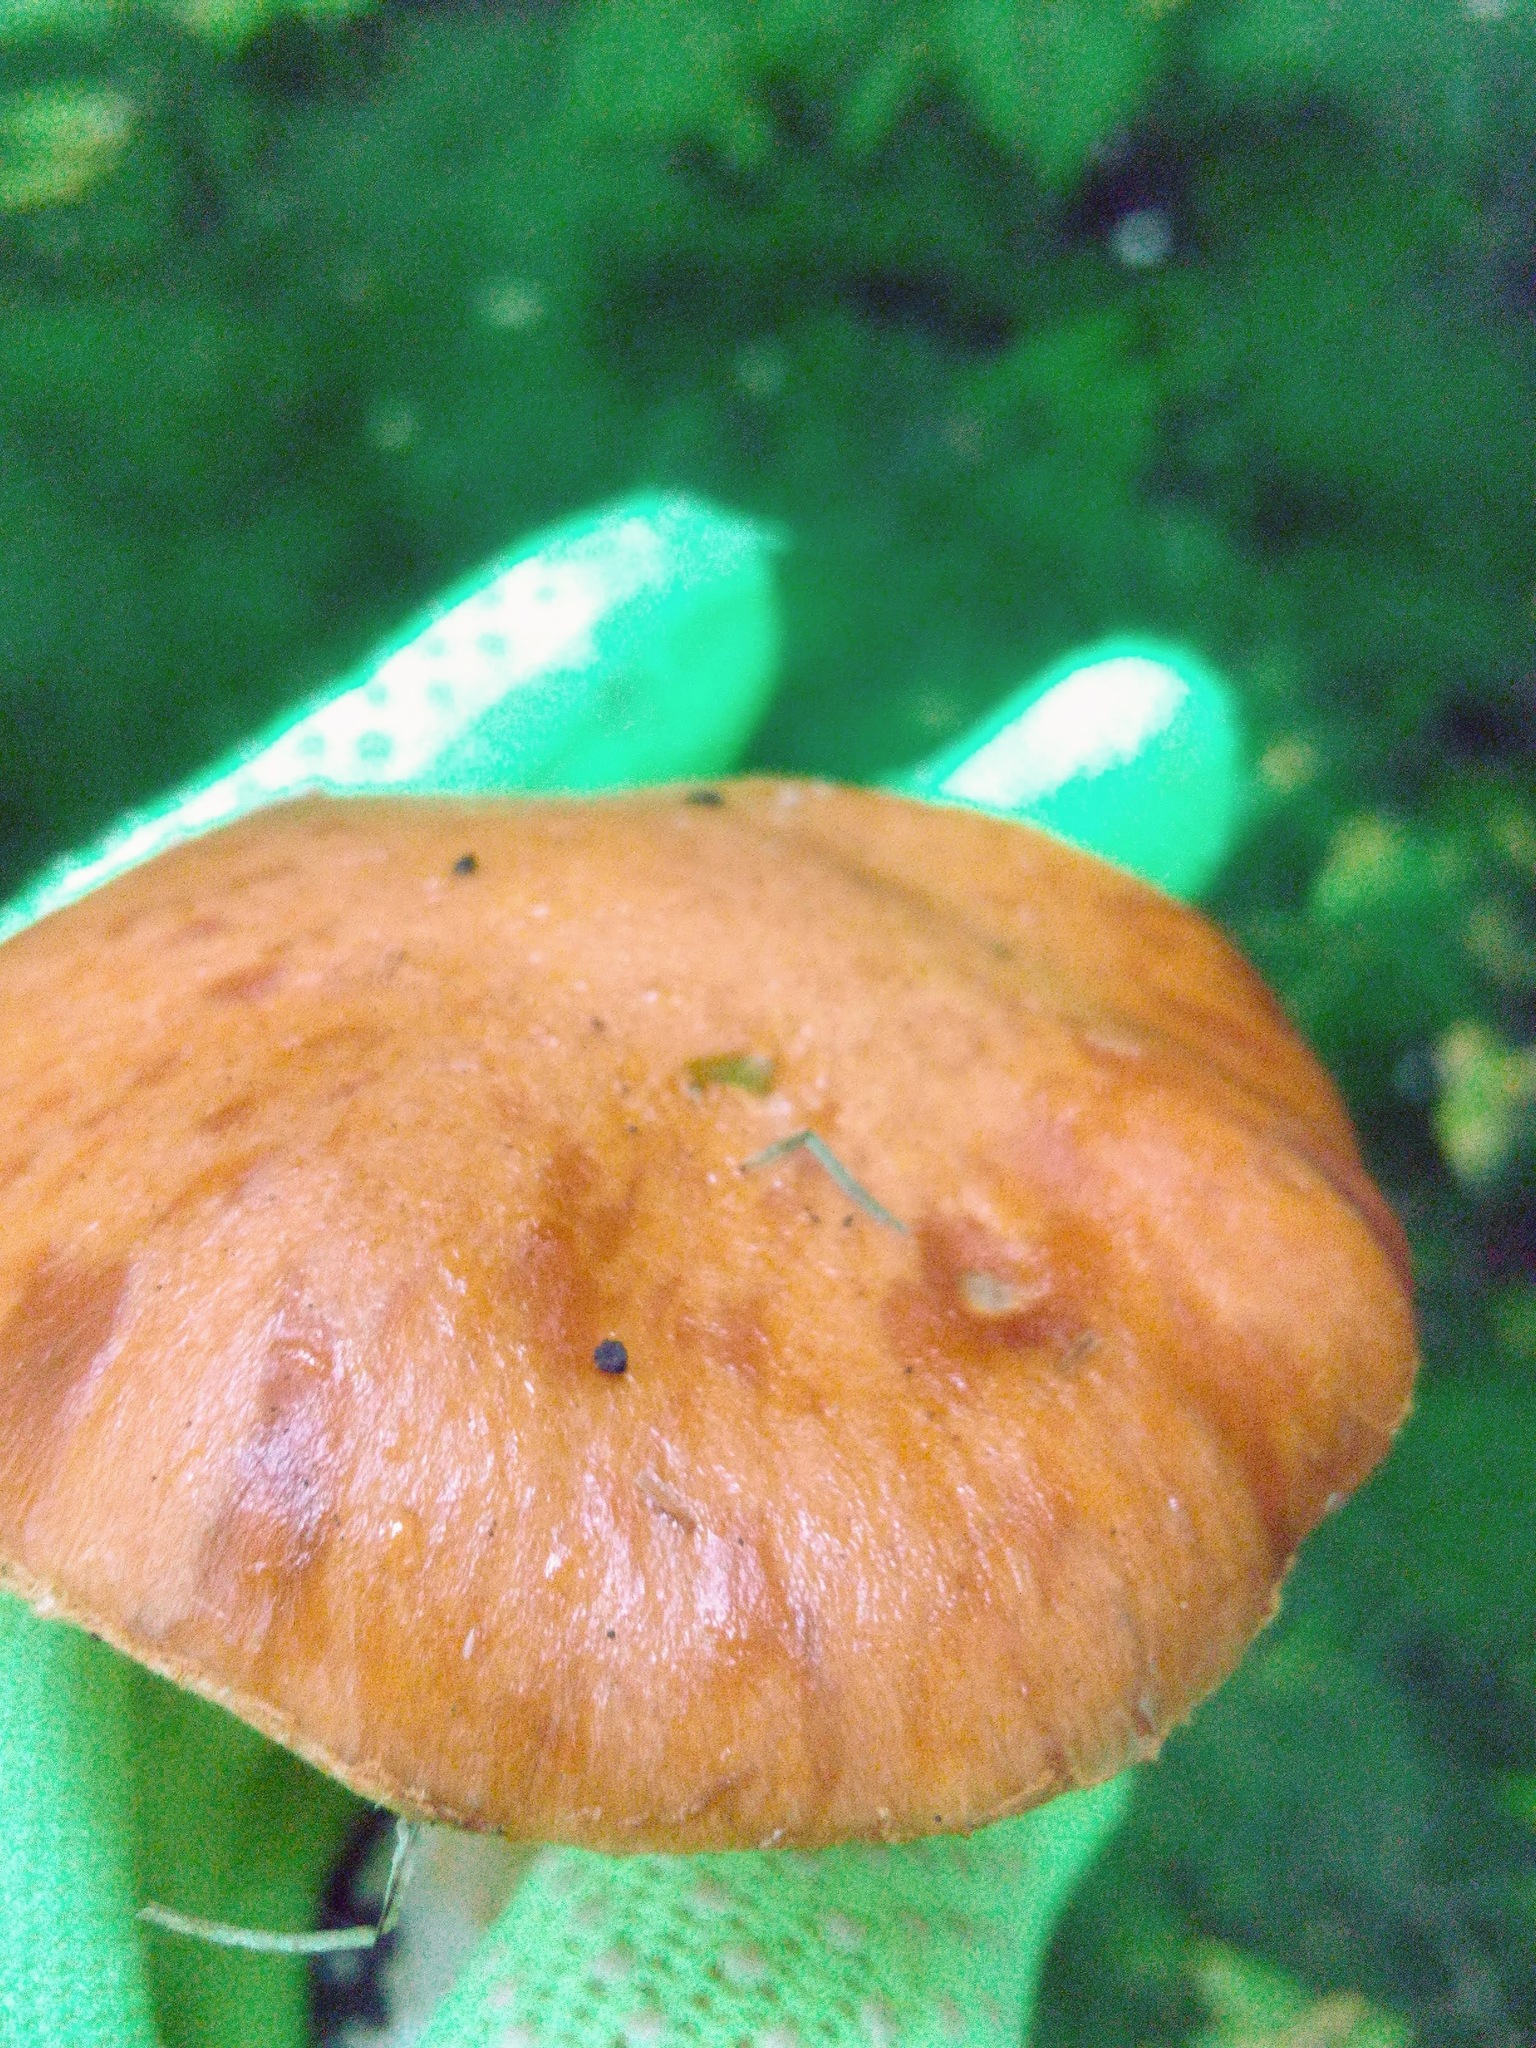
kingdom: Fungi
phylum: Basidiomycota
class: Agaricomycetes
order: Agaricales
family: Cortinariaceae
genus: Thaxterogaster
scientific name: Thaxterogaster multiformis
